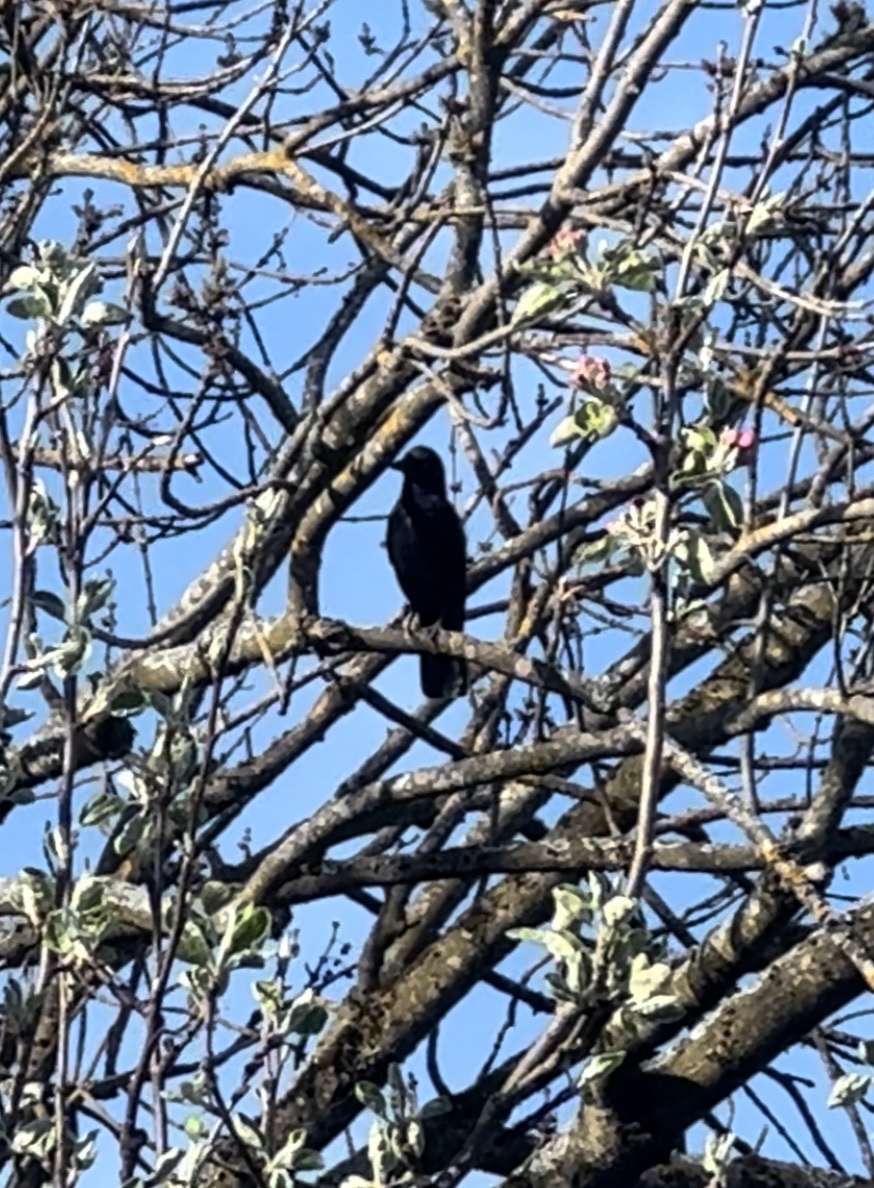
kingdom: Animalia
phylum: Chordata
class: Aves
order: Passeriformes
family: Corvidae
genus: Corvus
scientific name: Corvus corone
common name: Carrion crow
